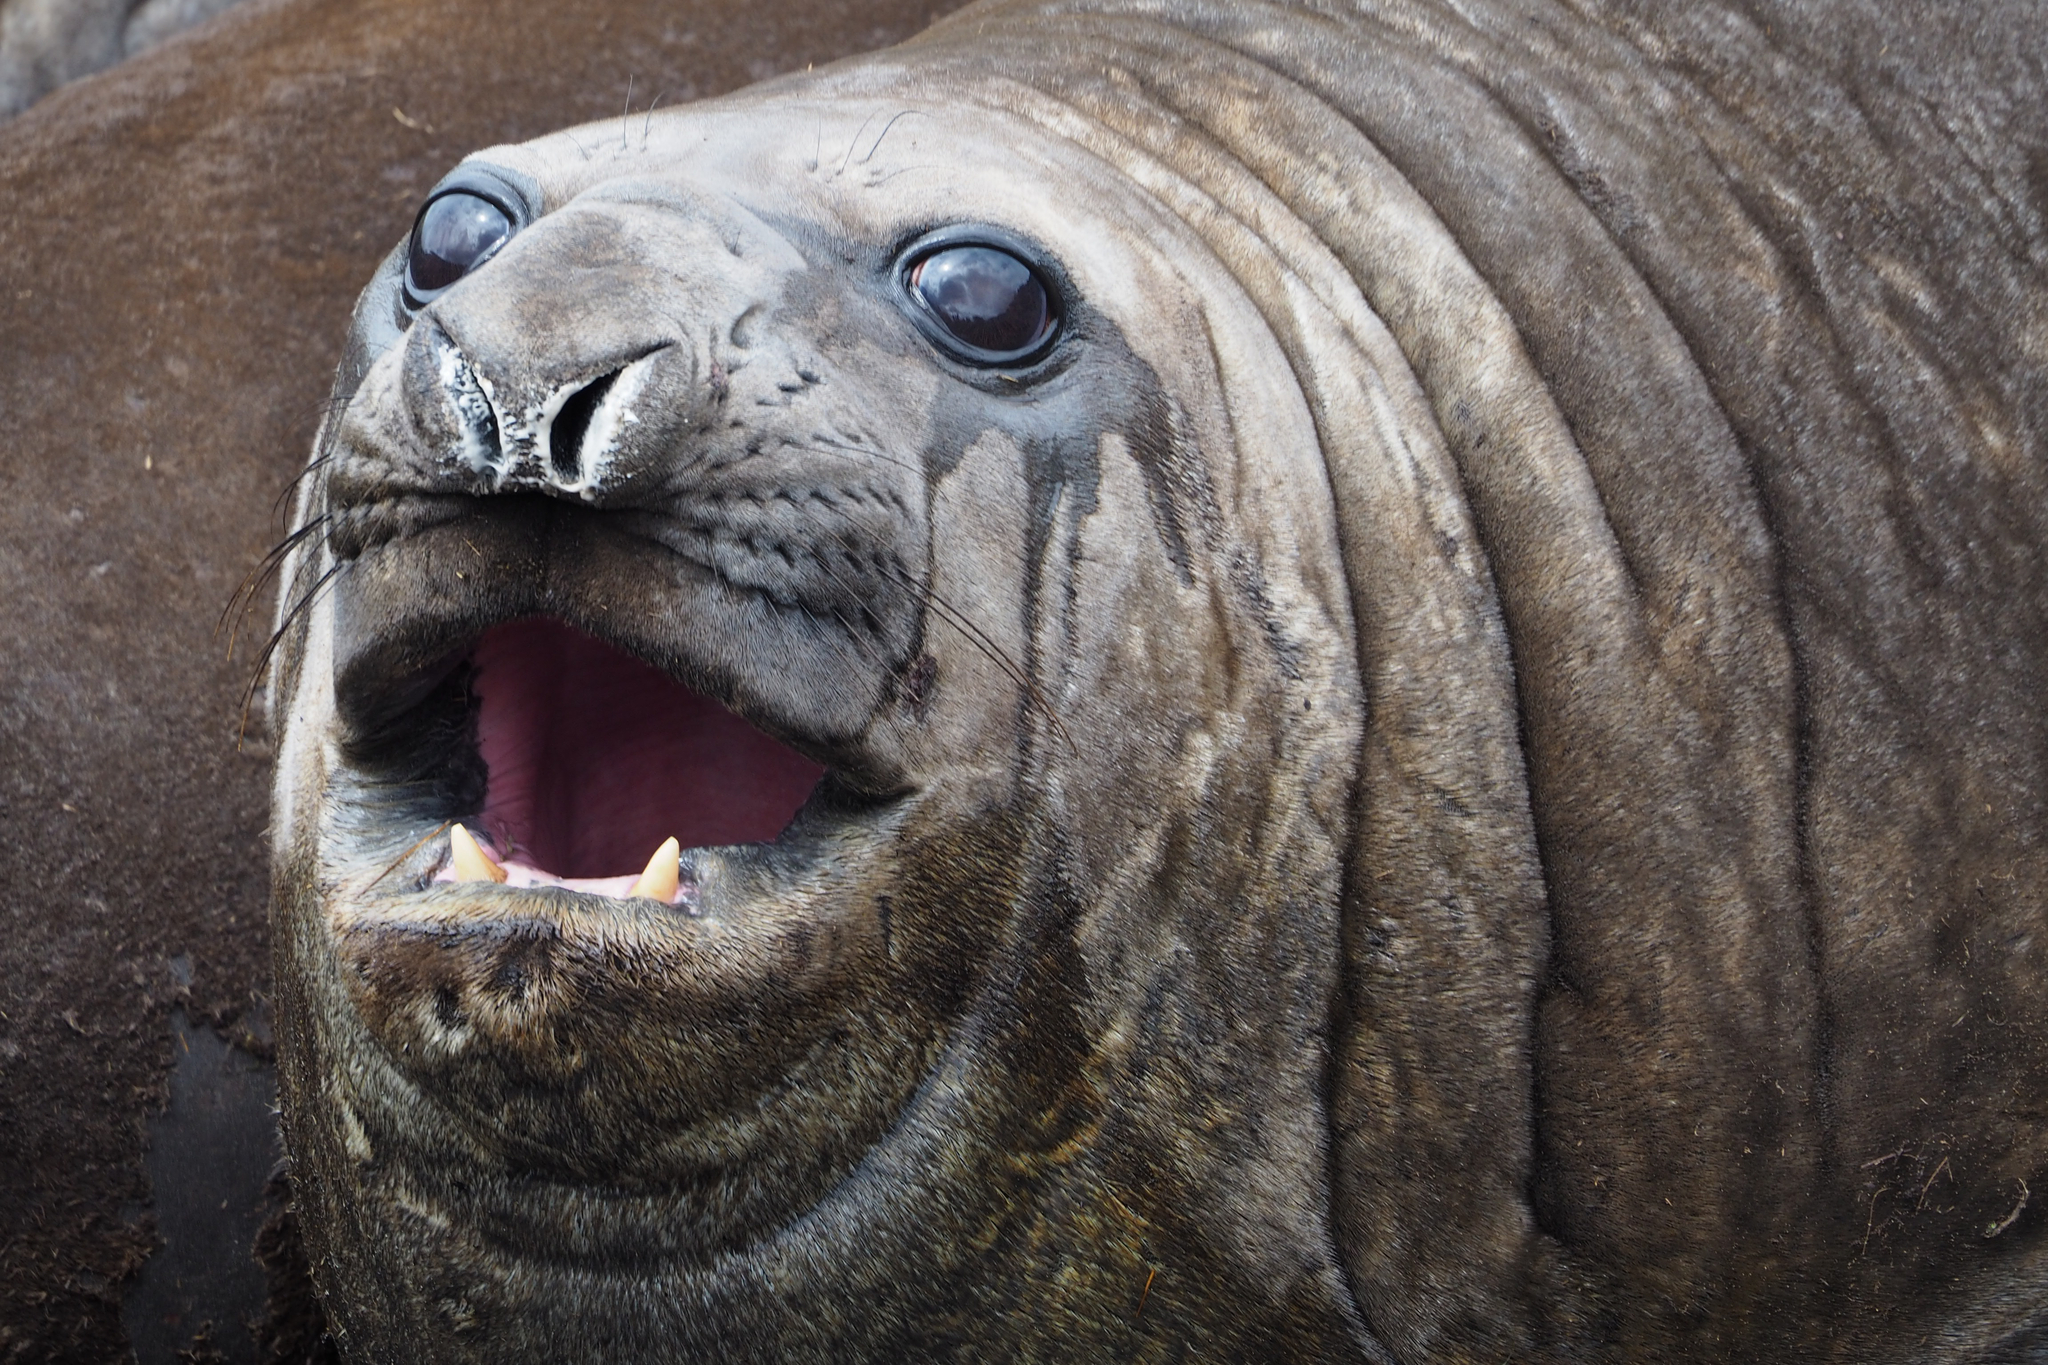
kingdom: Animalia
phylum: Chordata
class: Mammalia
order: Carnivora
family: Phocidae
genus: Mirounga
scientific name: Mirounga leonina
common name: Southern elephant seal
